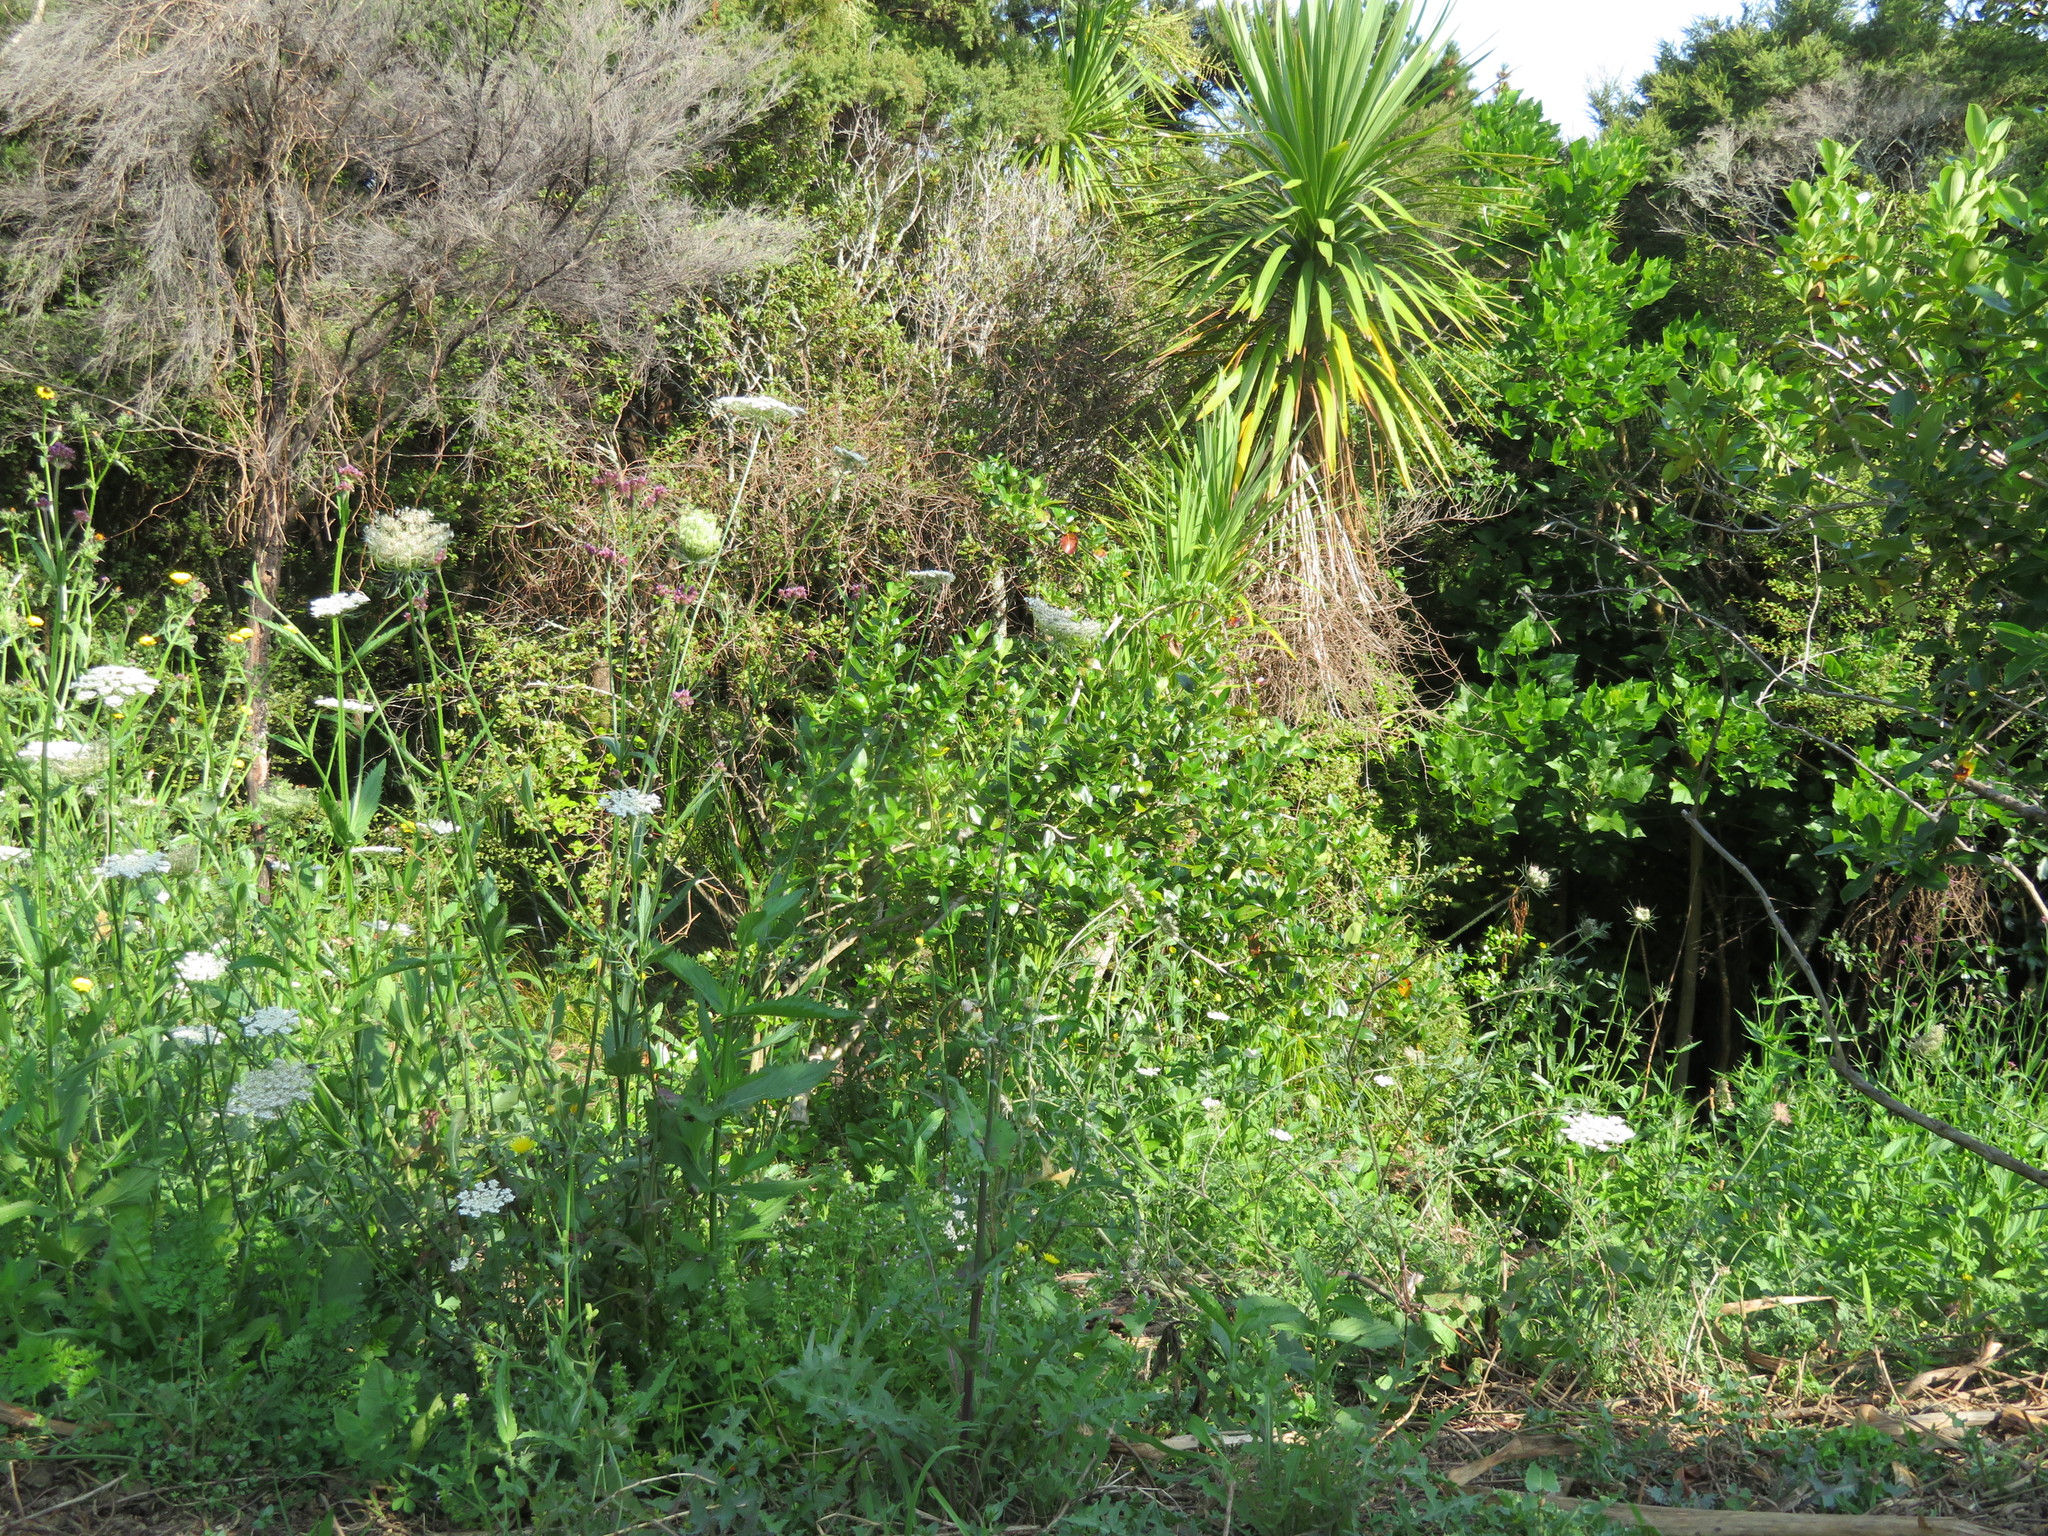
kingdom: Plantae
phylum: Tracheophyta
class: Magnoliopsida
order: Apiales
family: Apiaceae
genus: Daucus
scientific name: Daucus carota
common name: Wild carrot
